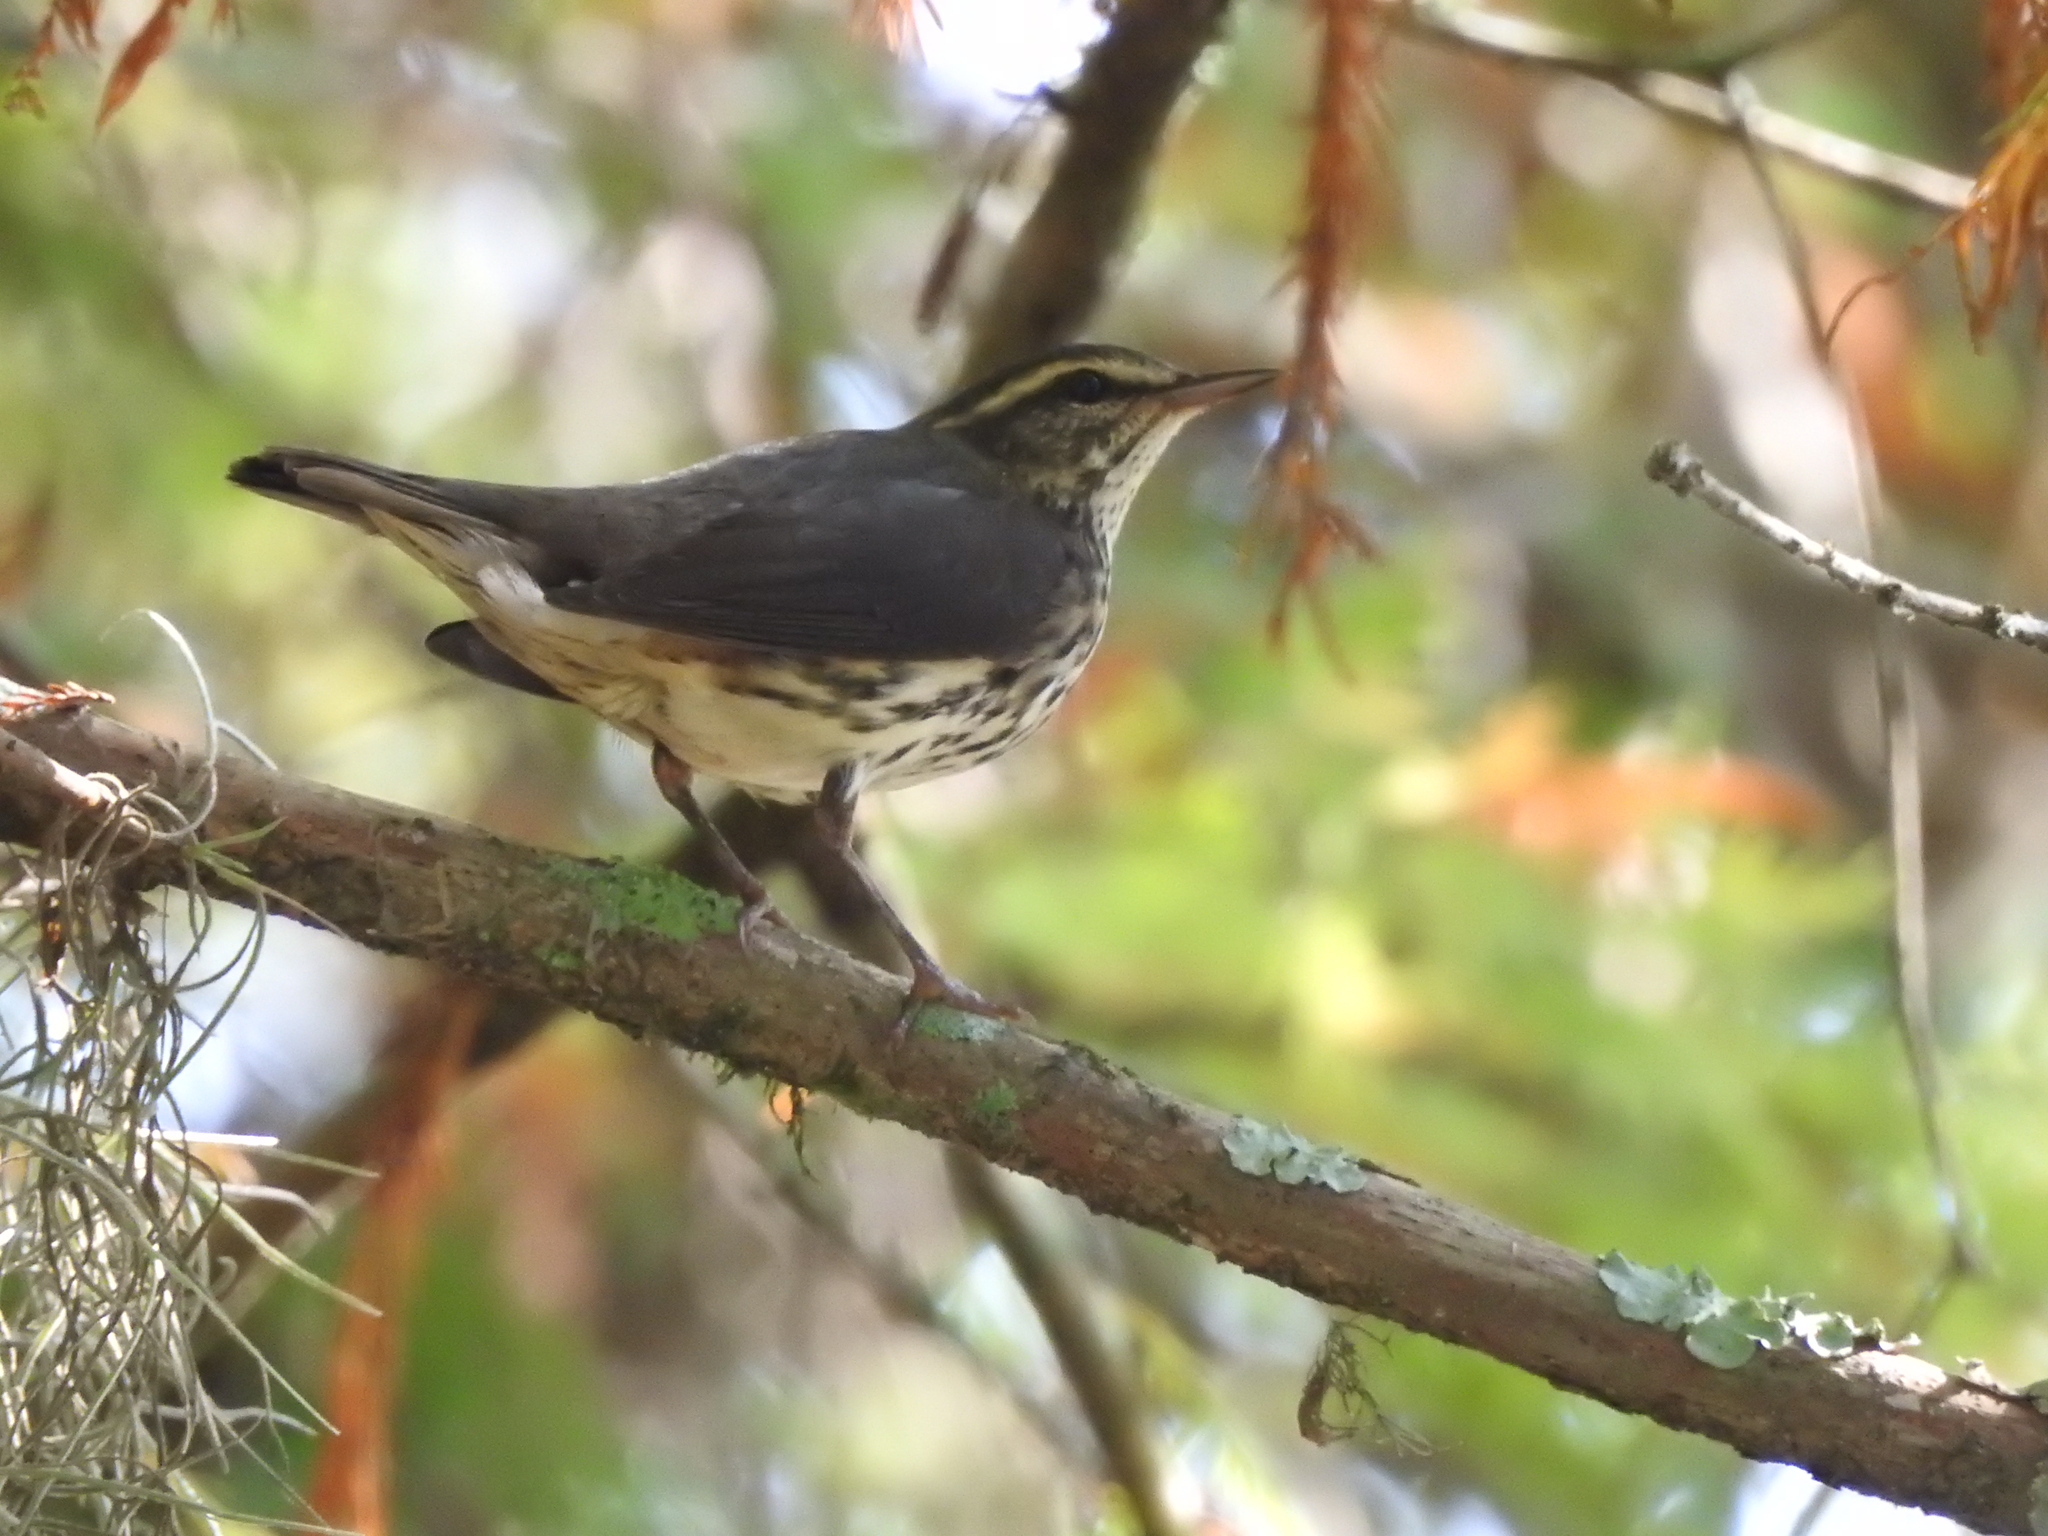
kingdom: Animalia
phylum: Chordata
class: Aves
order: Passeriformes
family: Parulidae
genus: Parkesia
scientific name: Parkesia noveboracensis
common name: Northern waterthrush
